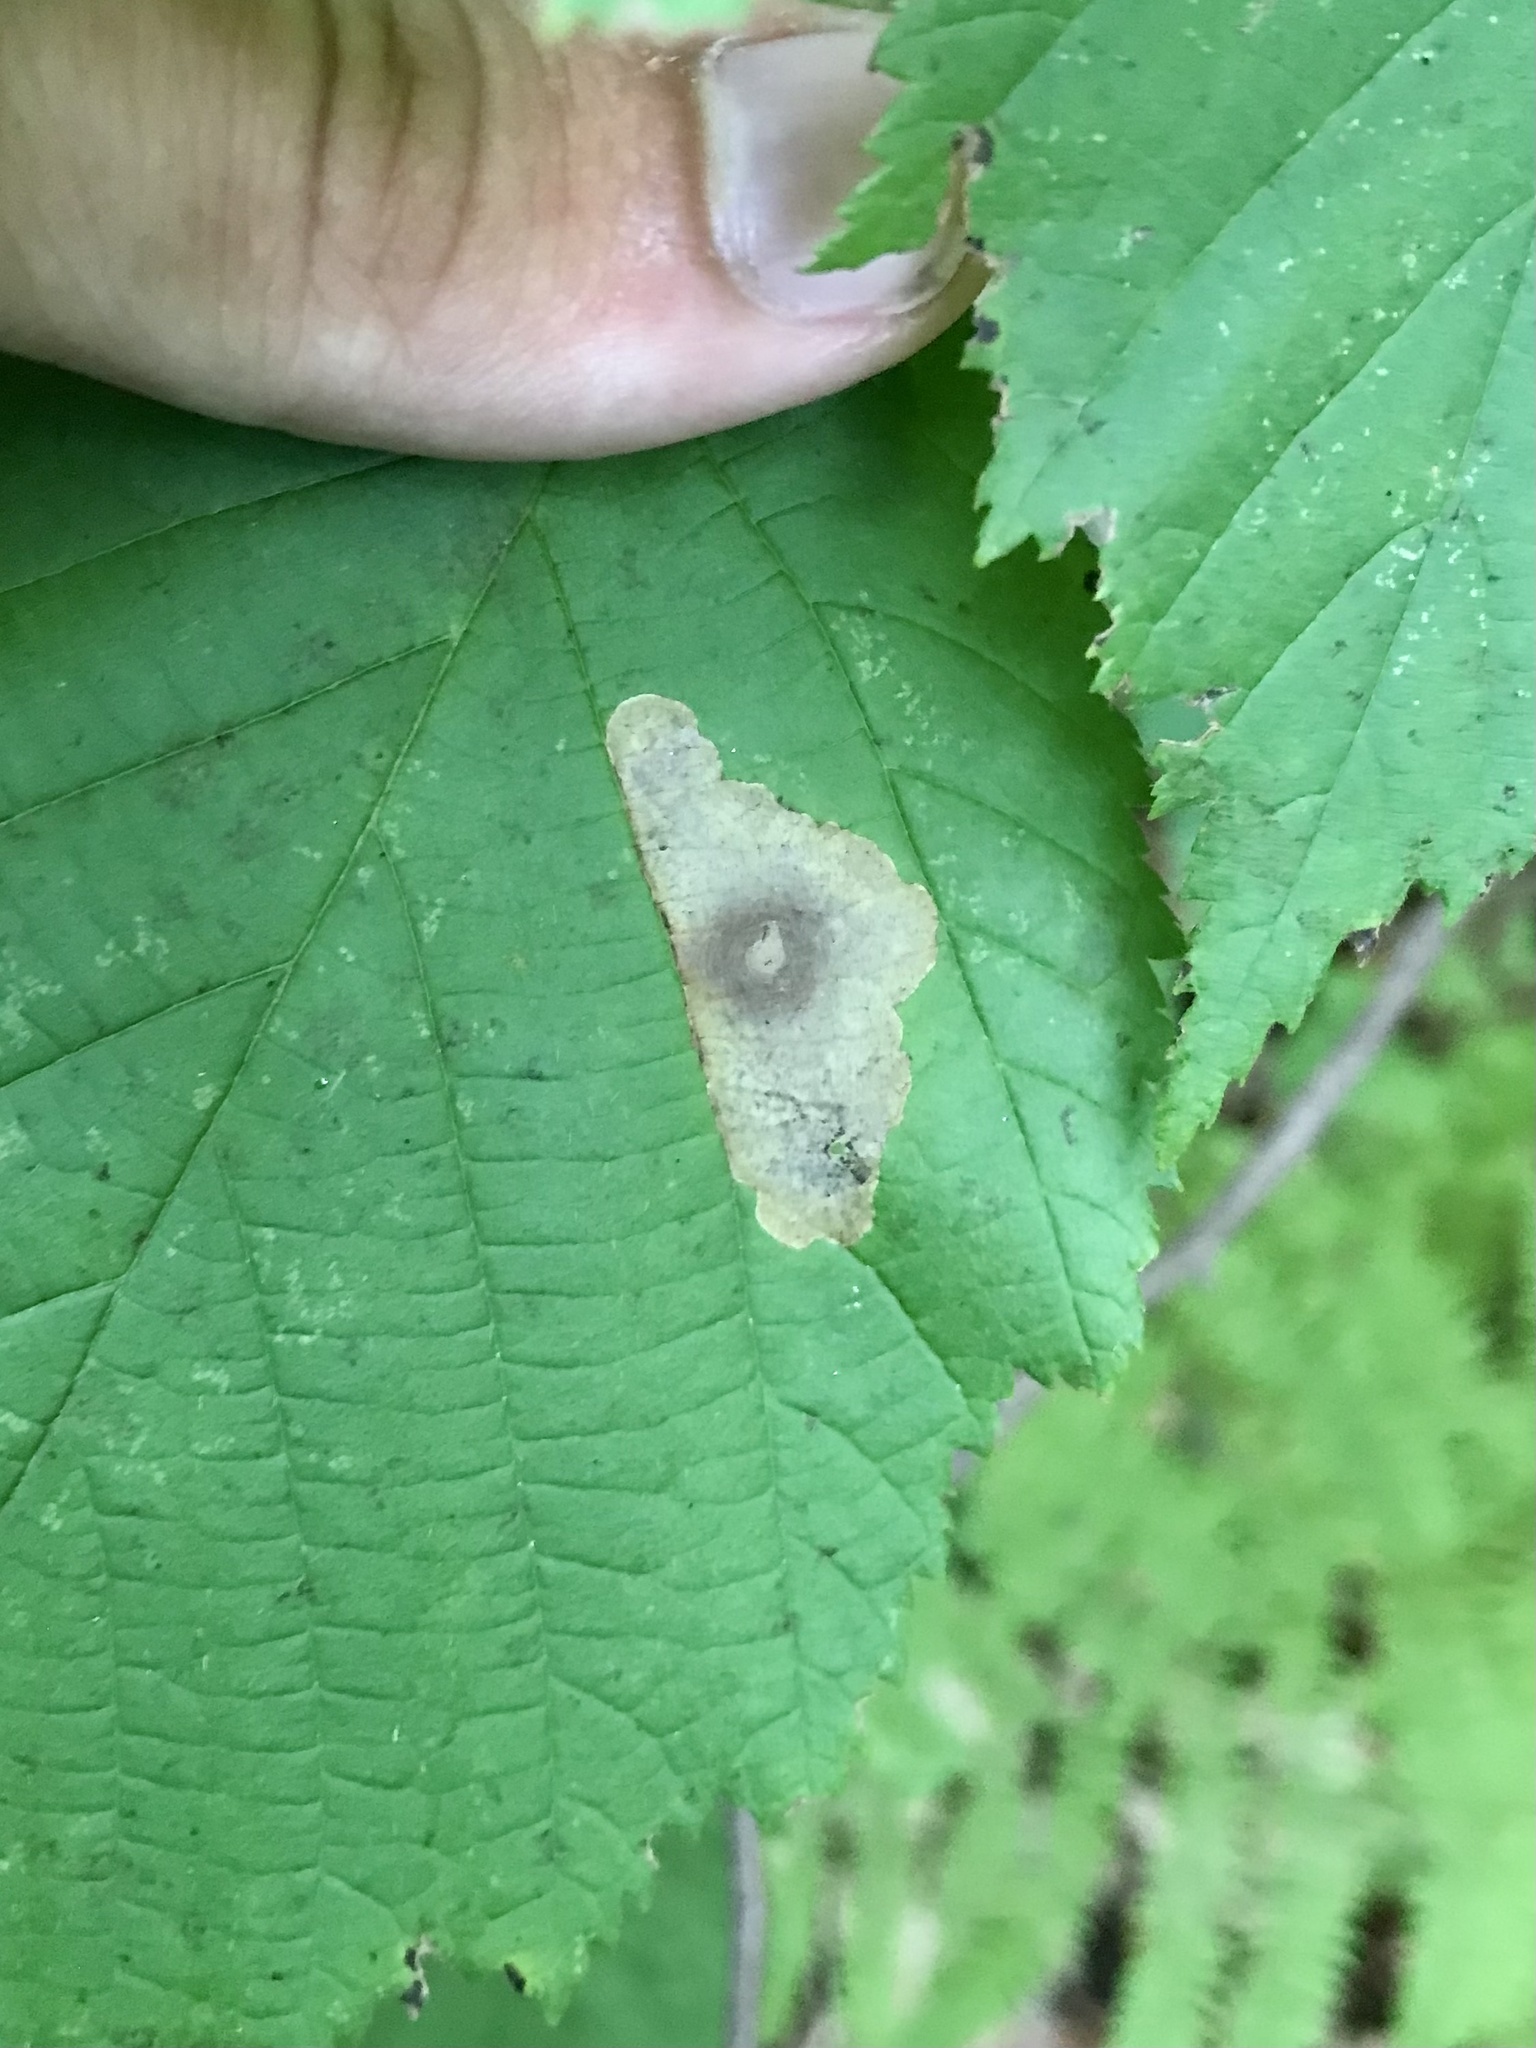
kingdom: Animalia
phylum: Arthropoda
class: Insecta
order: Lepidoptera
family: Gracillariidae
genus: Cameraria
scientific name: Cameraria corylisella
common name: Hazel blotchminer
